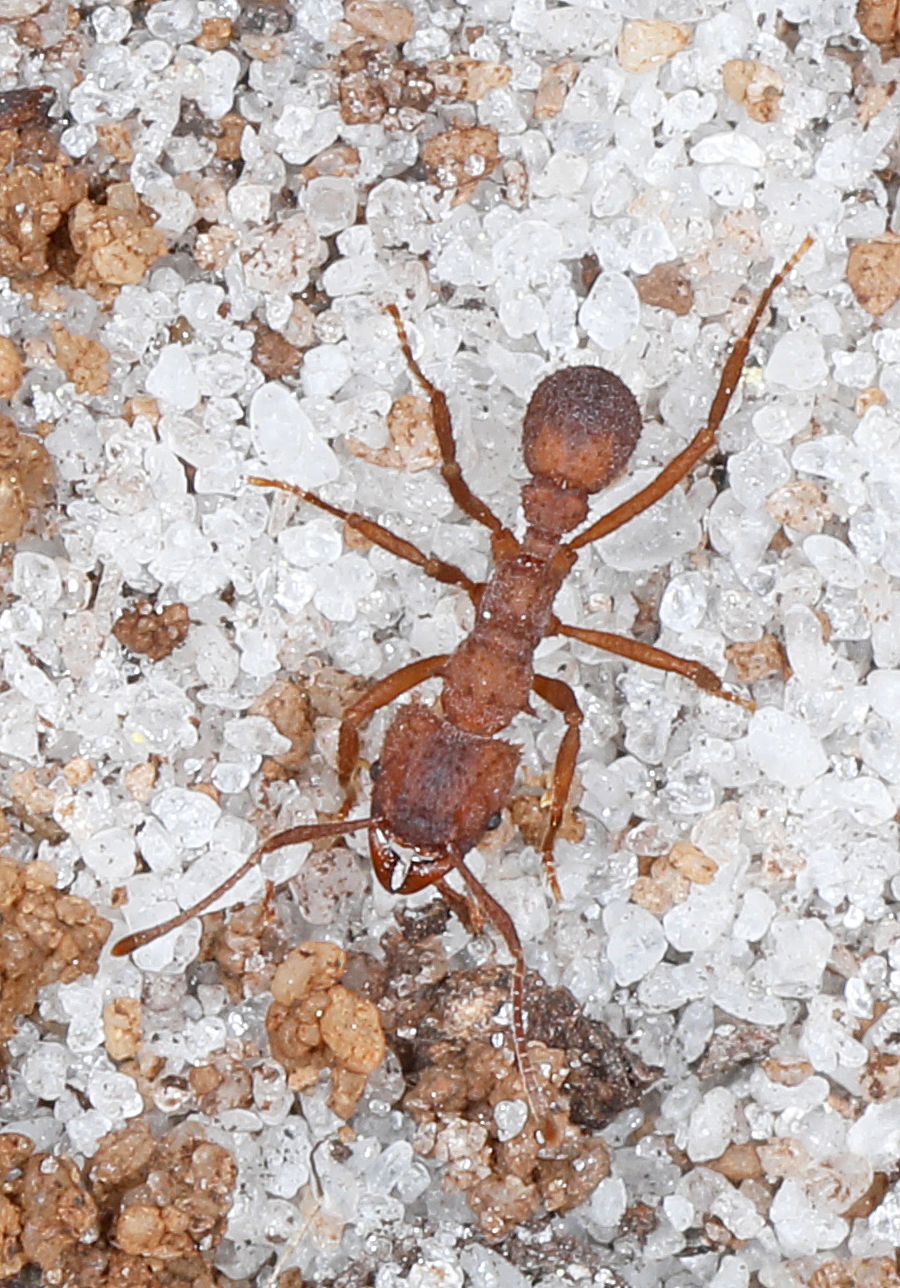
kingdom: Animalia
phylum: Arthropoda
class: Insecta
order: Hymenoptera
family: Formicidae
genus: Trachymyrmex
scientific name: Trachymyrmex septentrionalis
